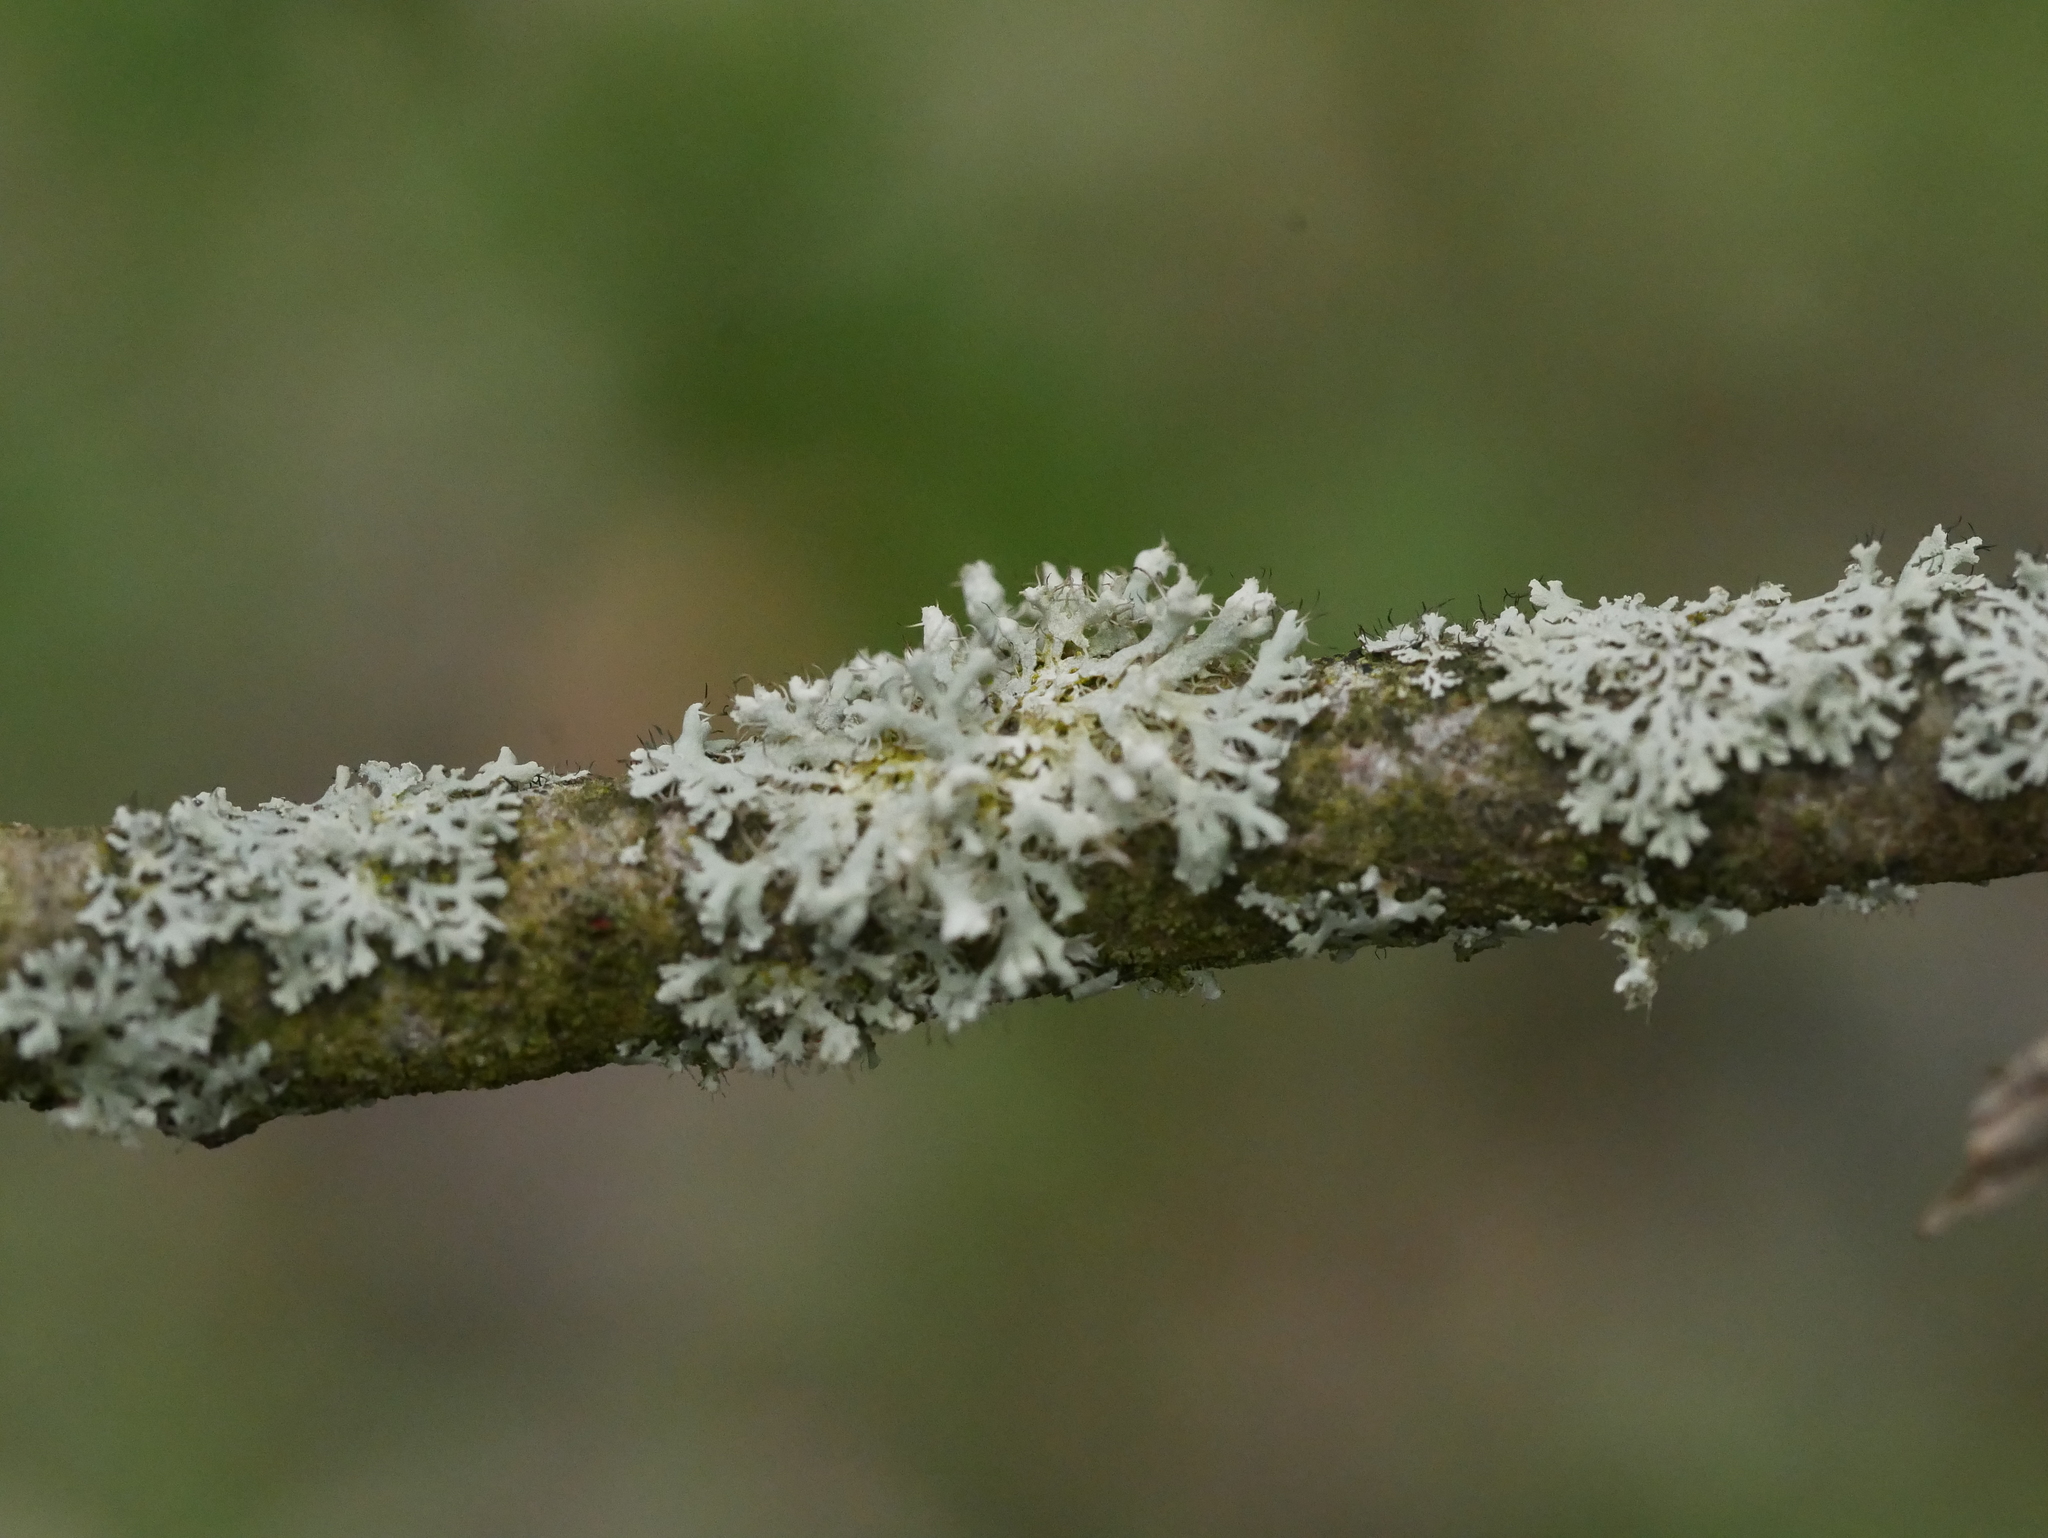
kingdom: Fungi
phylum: Ascomycota
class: Lecanoromycetes
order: Caliciales
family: Physciaceae
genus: Physcia
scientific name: Physcia adscendens
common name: Hooded rosette lichen
